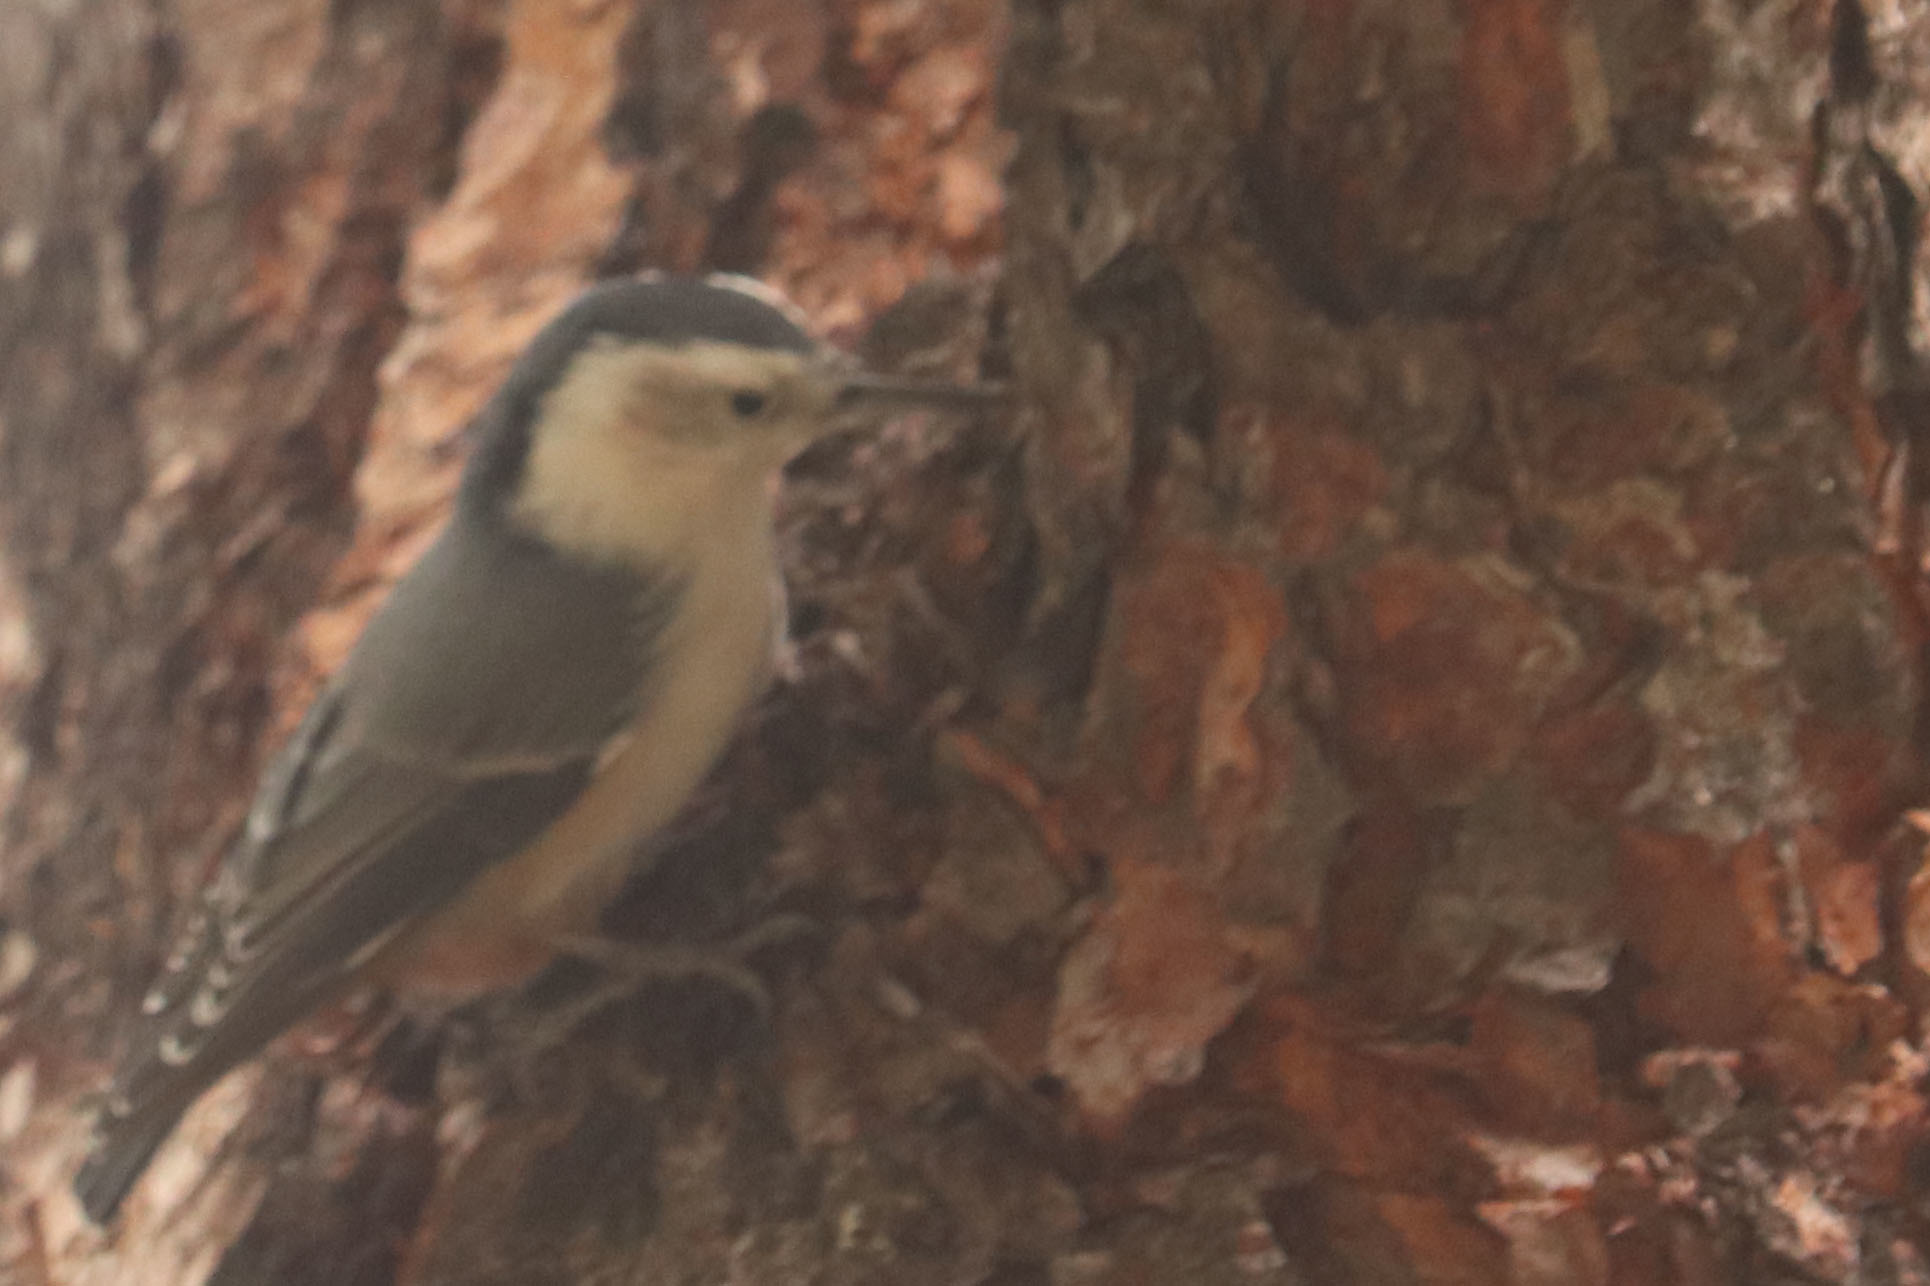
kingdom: Animalia
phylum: Chordata
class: Aves
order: Passeriformes
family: Sittidae
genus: Sitta
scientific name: Sitta carolinensis
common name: White-breasted nuthatch
